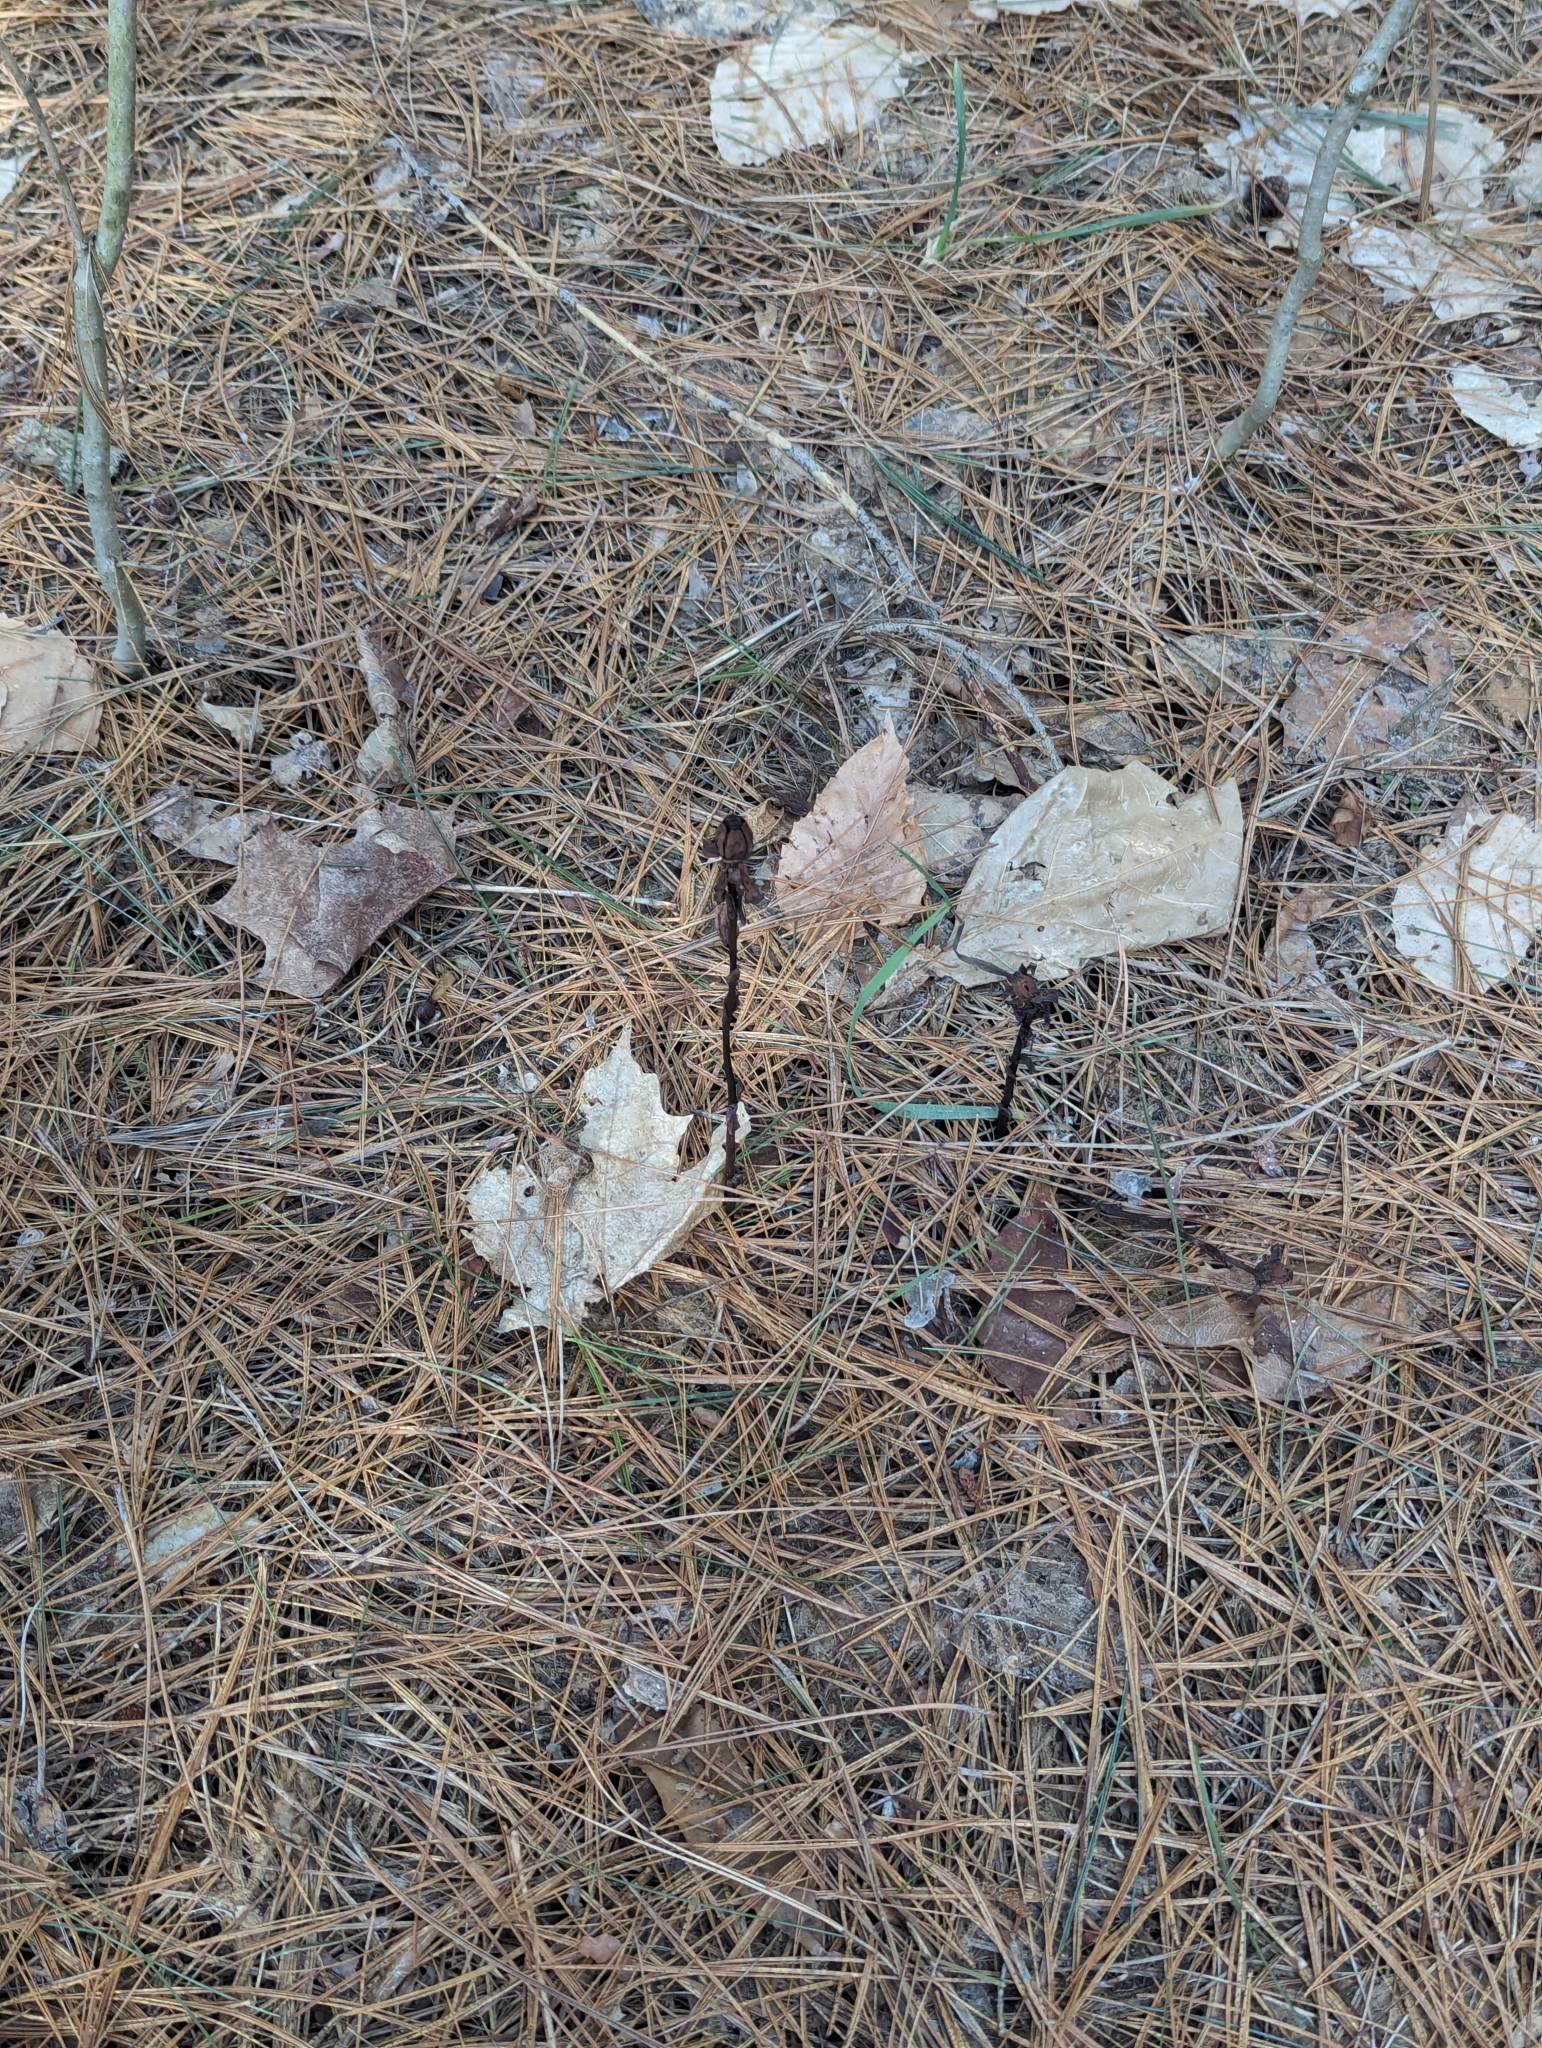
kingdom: Plantae
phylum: Tracheophyta
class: Magnoliopsida
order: Ericales
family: Ericaceae
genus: Monotropa
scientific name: Monotropa uniflora
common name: Convulsion root
